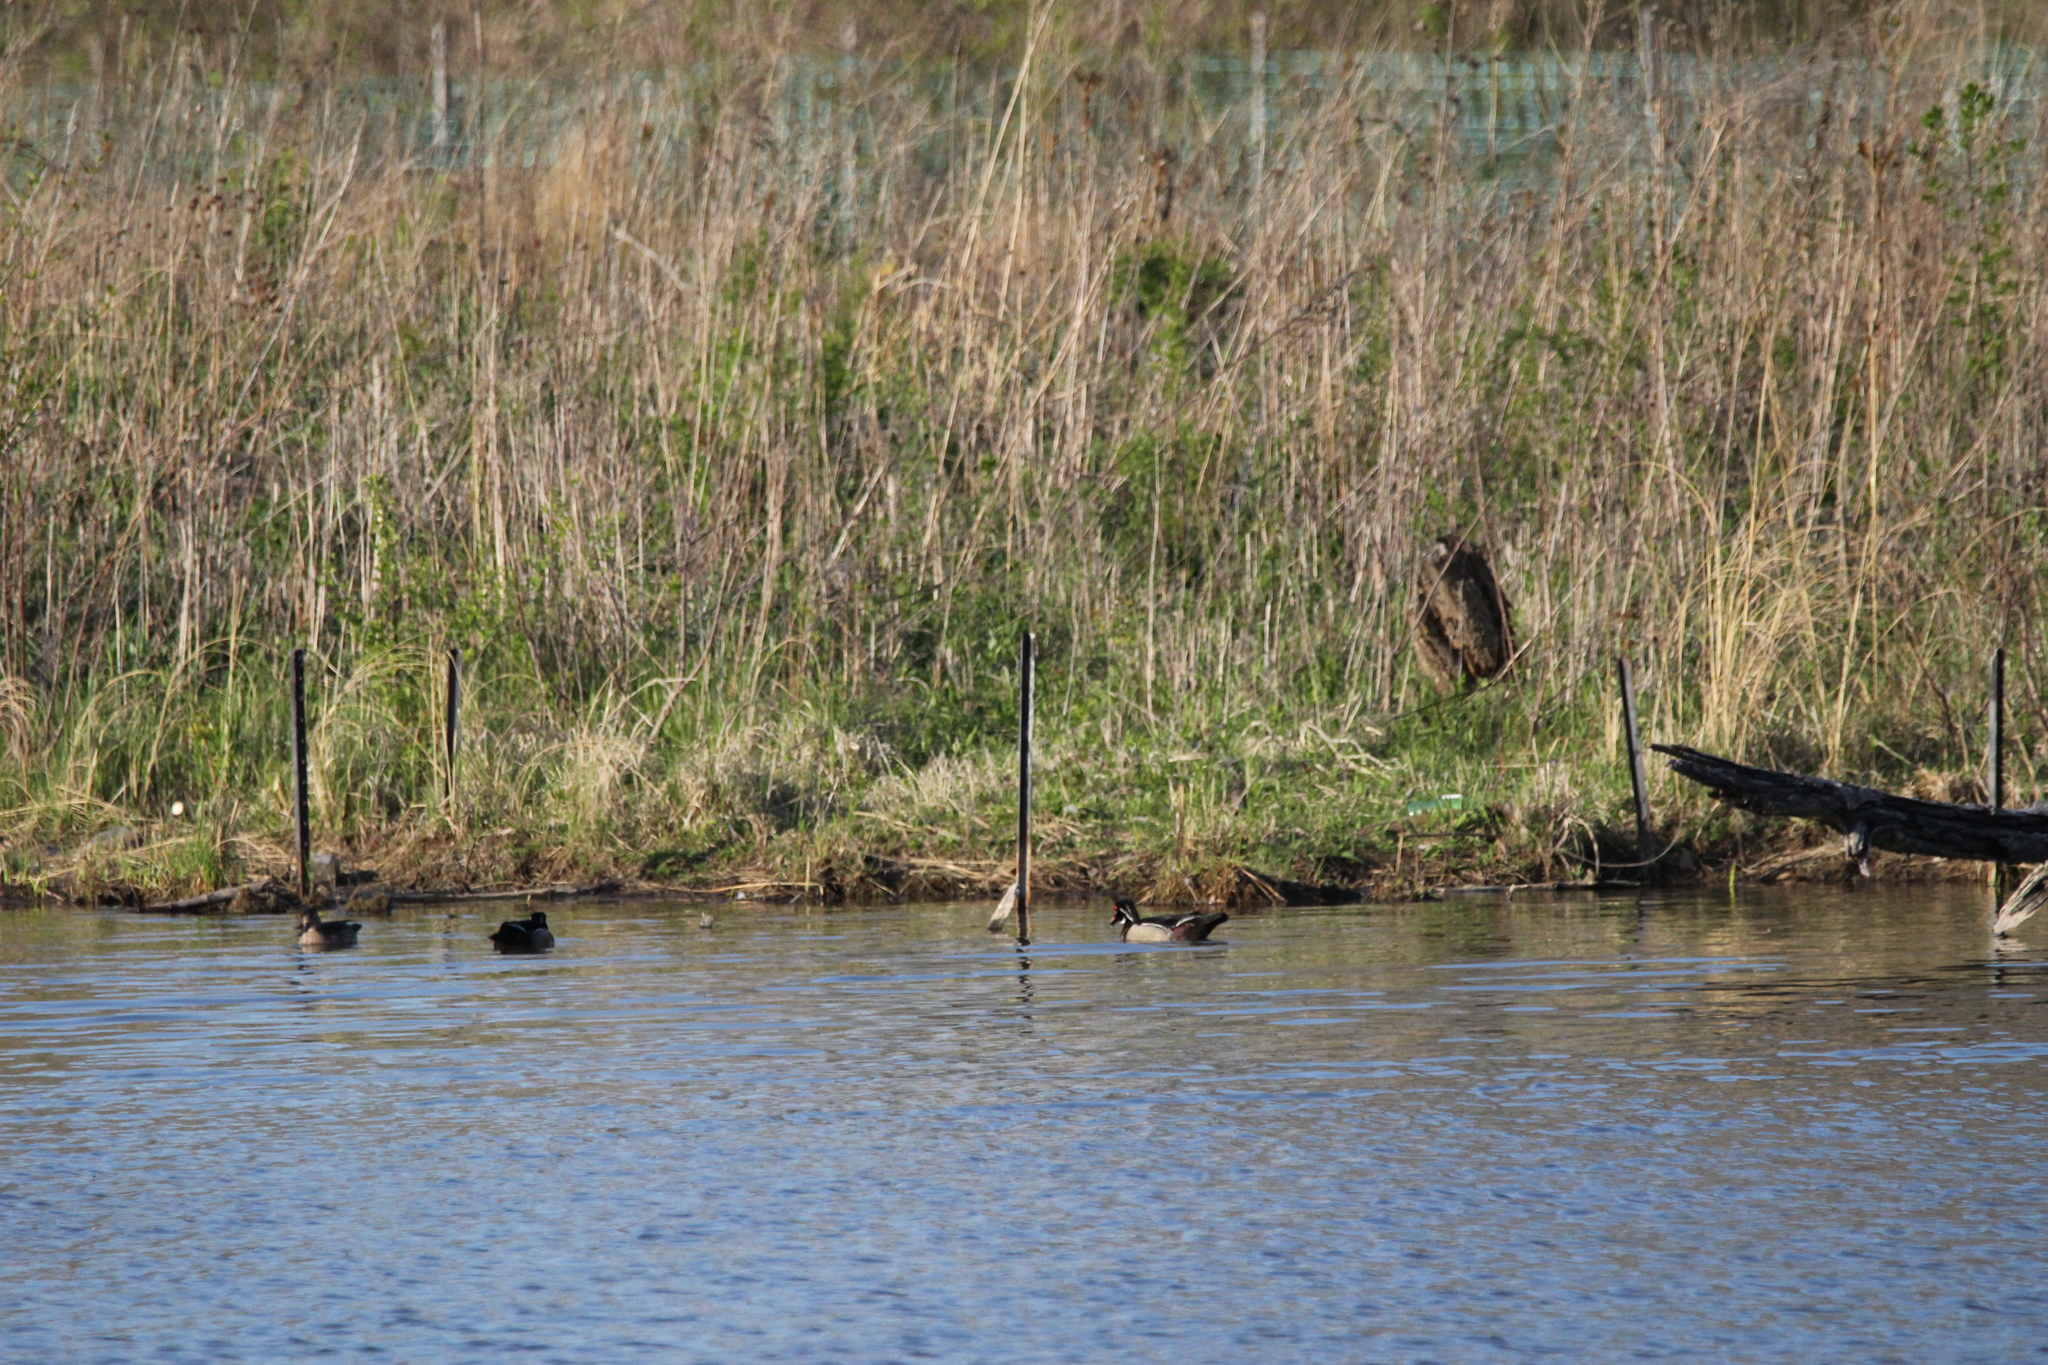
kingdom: Animalia
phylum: Chordata
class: Aves
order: Anseriformes
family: Anatidae
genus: Aix
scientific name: Aix sponsa
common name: Wood duck
